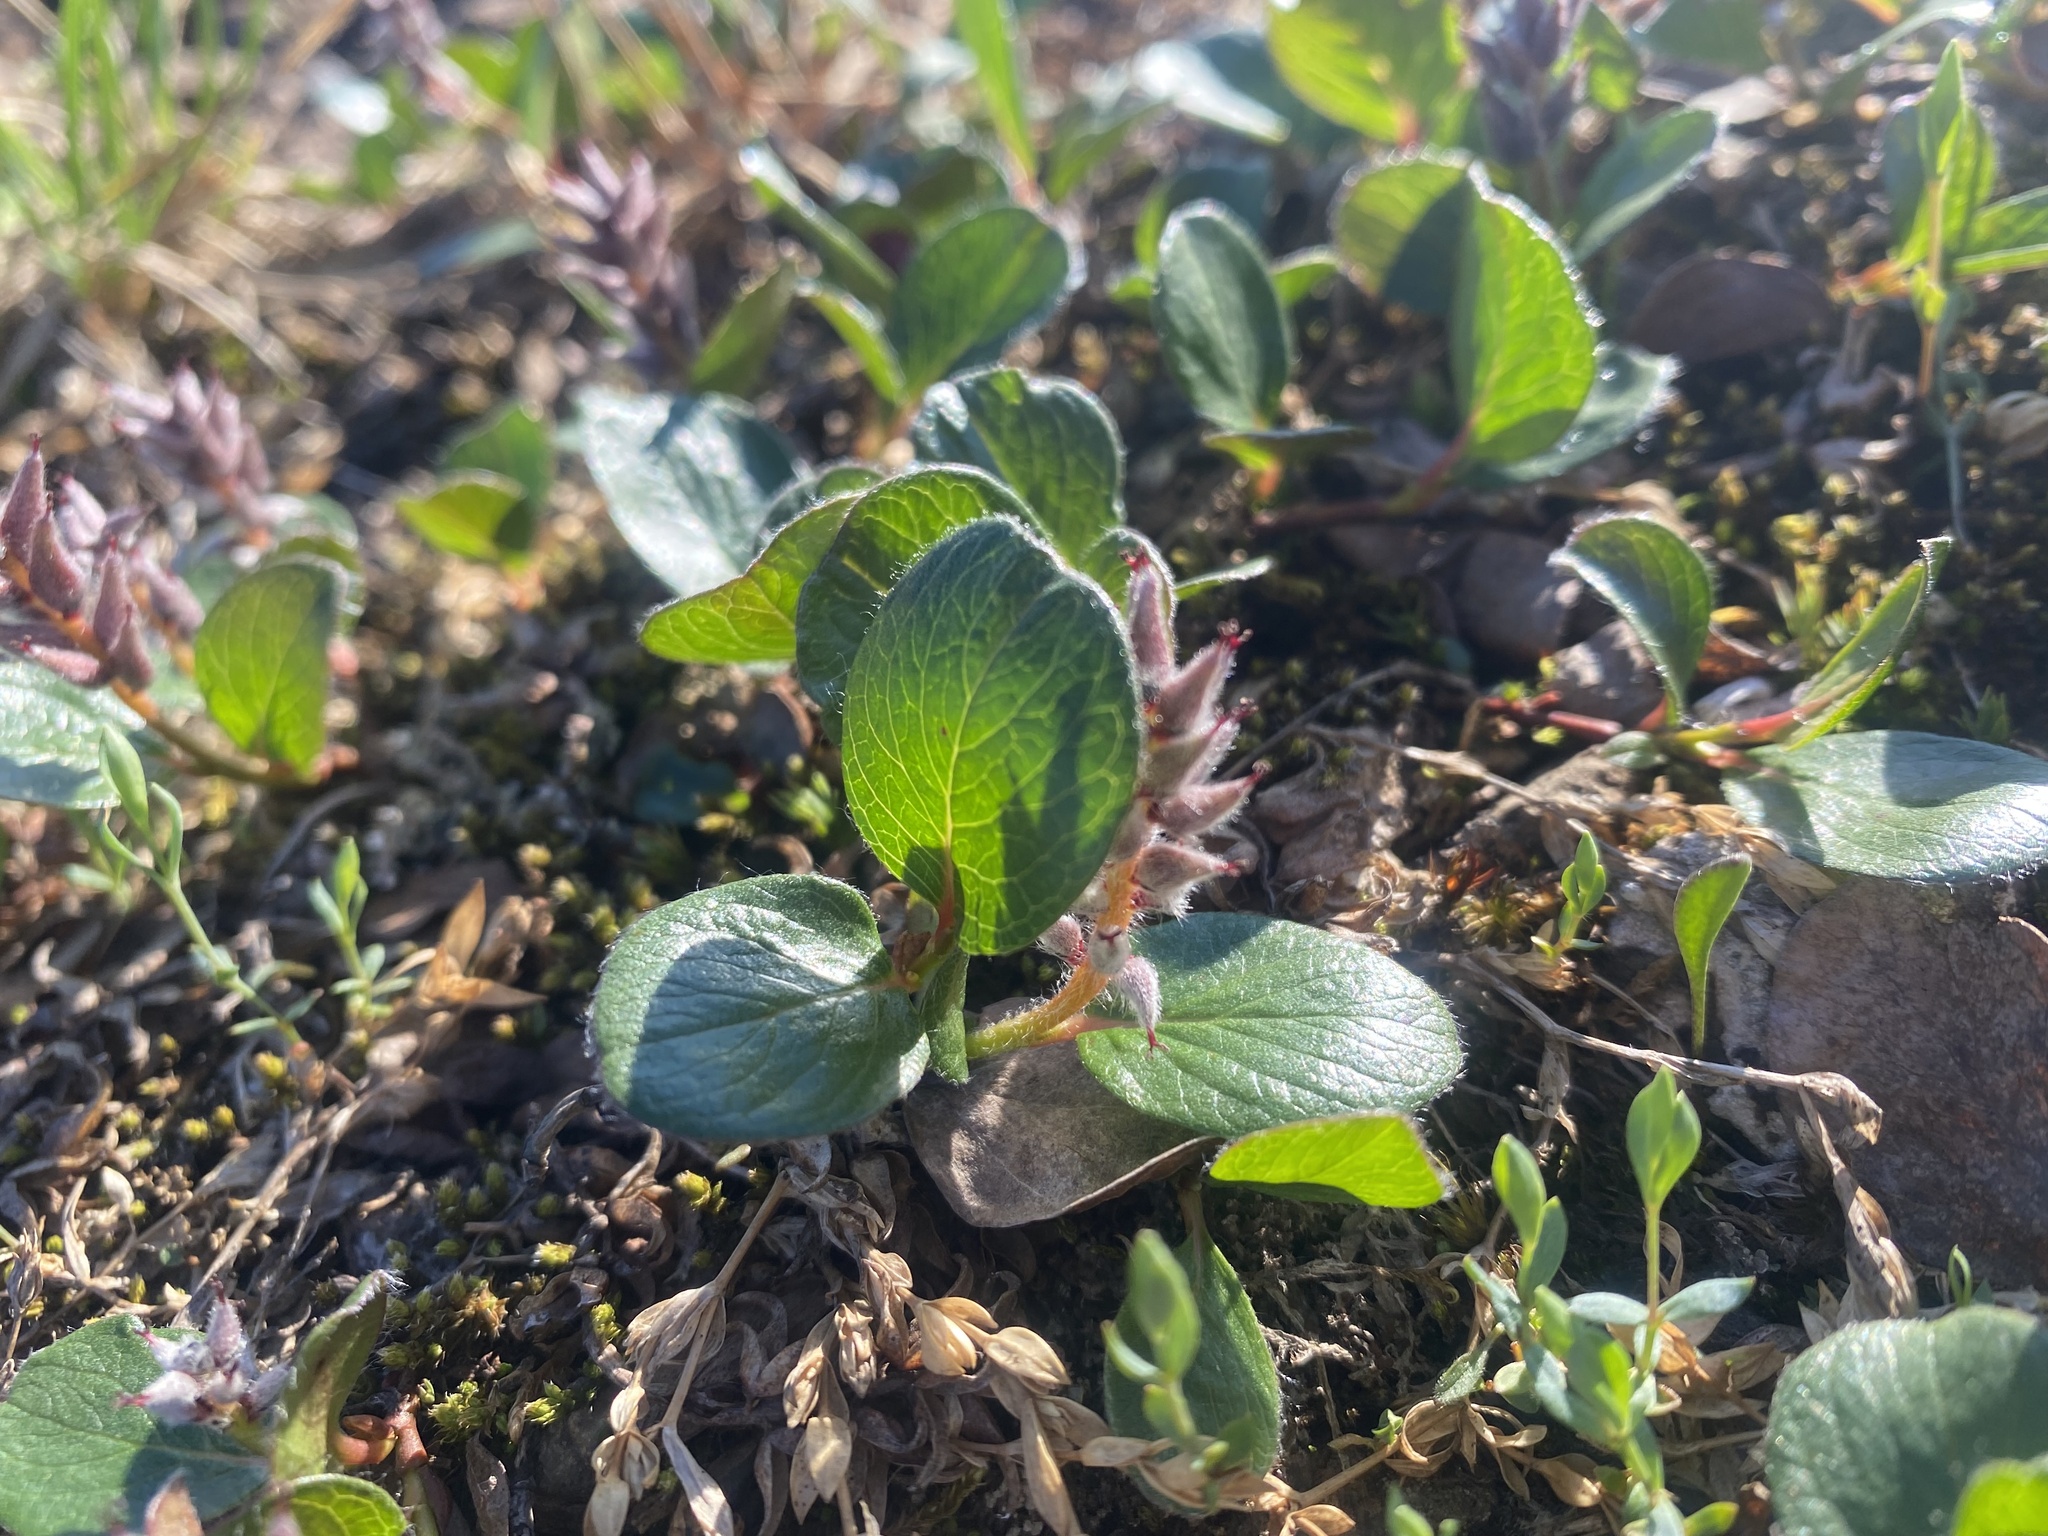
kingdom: Plantae
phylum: Tracheophyta
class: Magnoliopsida
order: Malpighiales
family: Salicaceae
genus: Salix
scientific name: Salix polaris
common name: Polar willow
